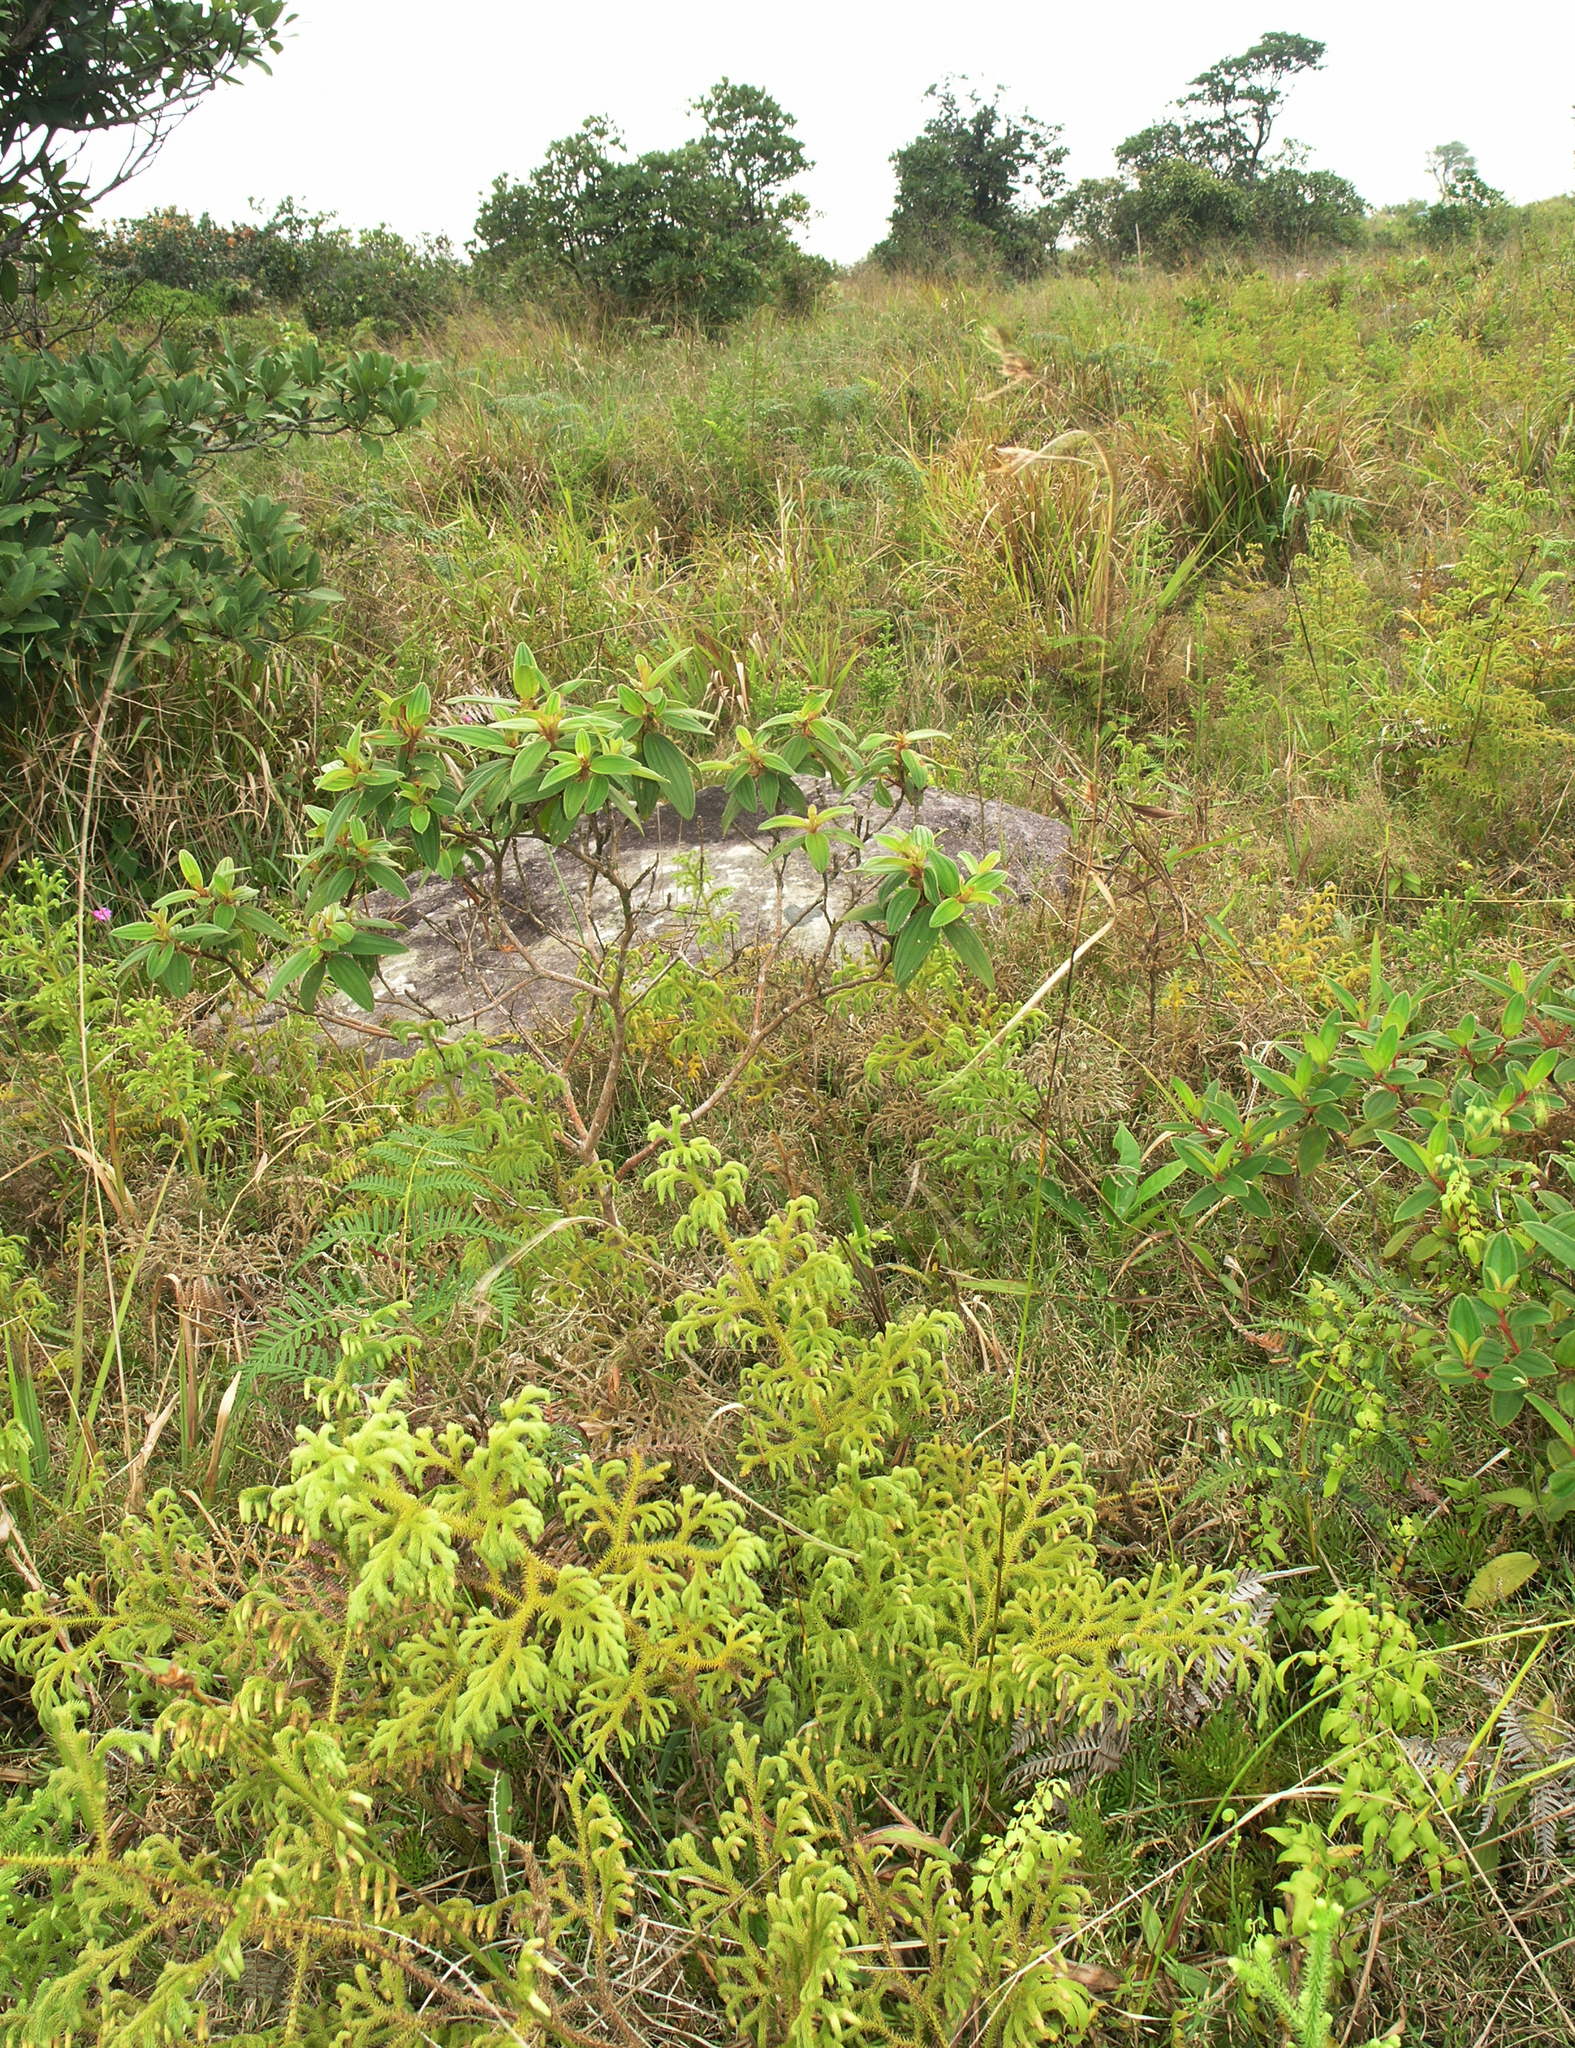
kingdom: Plantae
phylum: Tracheophyta
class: Lycopodiopsida
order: Lycopodiales
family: Lycopodiaceae
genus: Palhinhaea
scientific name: Palhinhaea cernua
